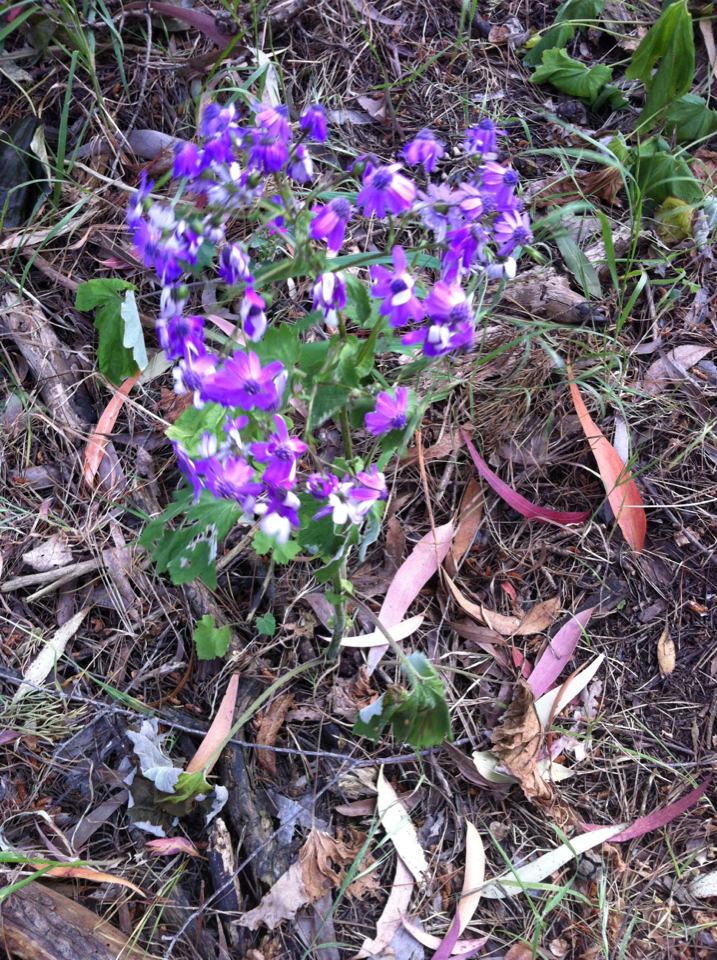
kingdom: Plantae
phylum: Tracheophyta
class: Magnoliopsida
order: Asterales
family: Asteraceae
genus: Pericallis
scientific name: Pericallis hybrida
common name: Cineraria
